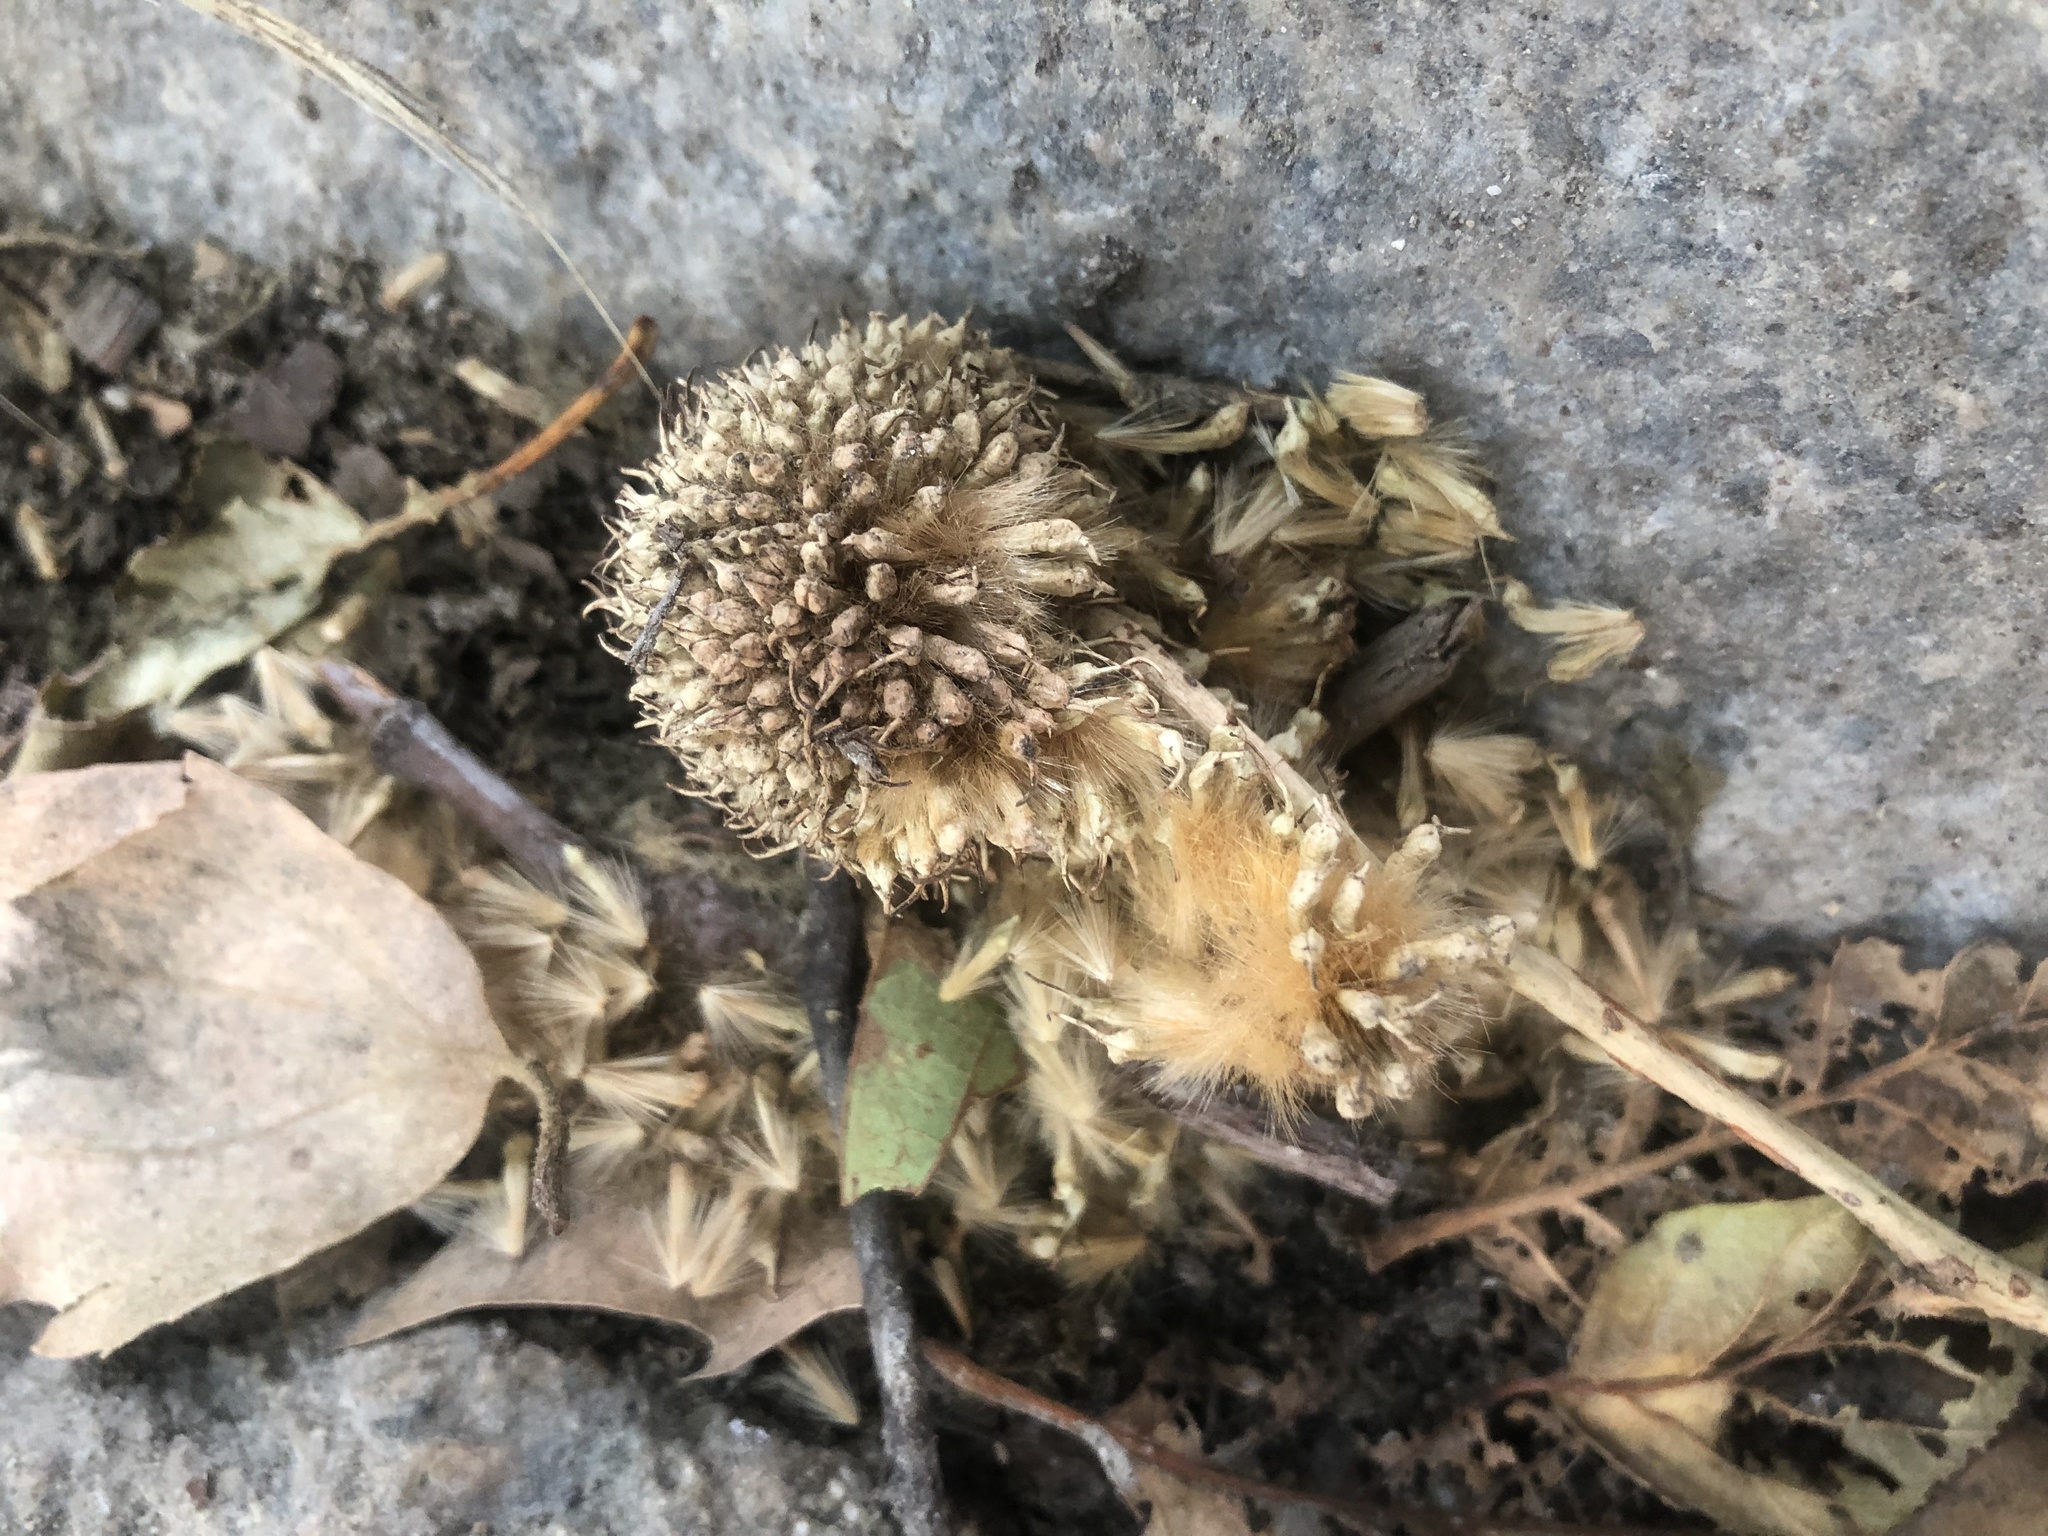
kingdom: Plantae
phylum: Tracheophyta
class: Magnoliopsida
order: Proteales
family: Platanaceae
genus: Platanus
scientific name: Platanus racemosa
